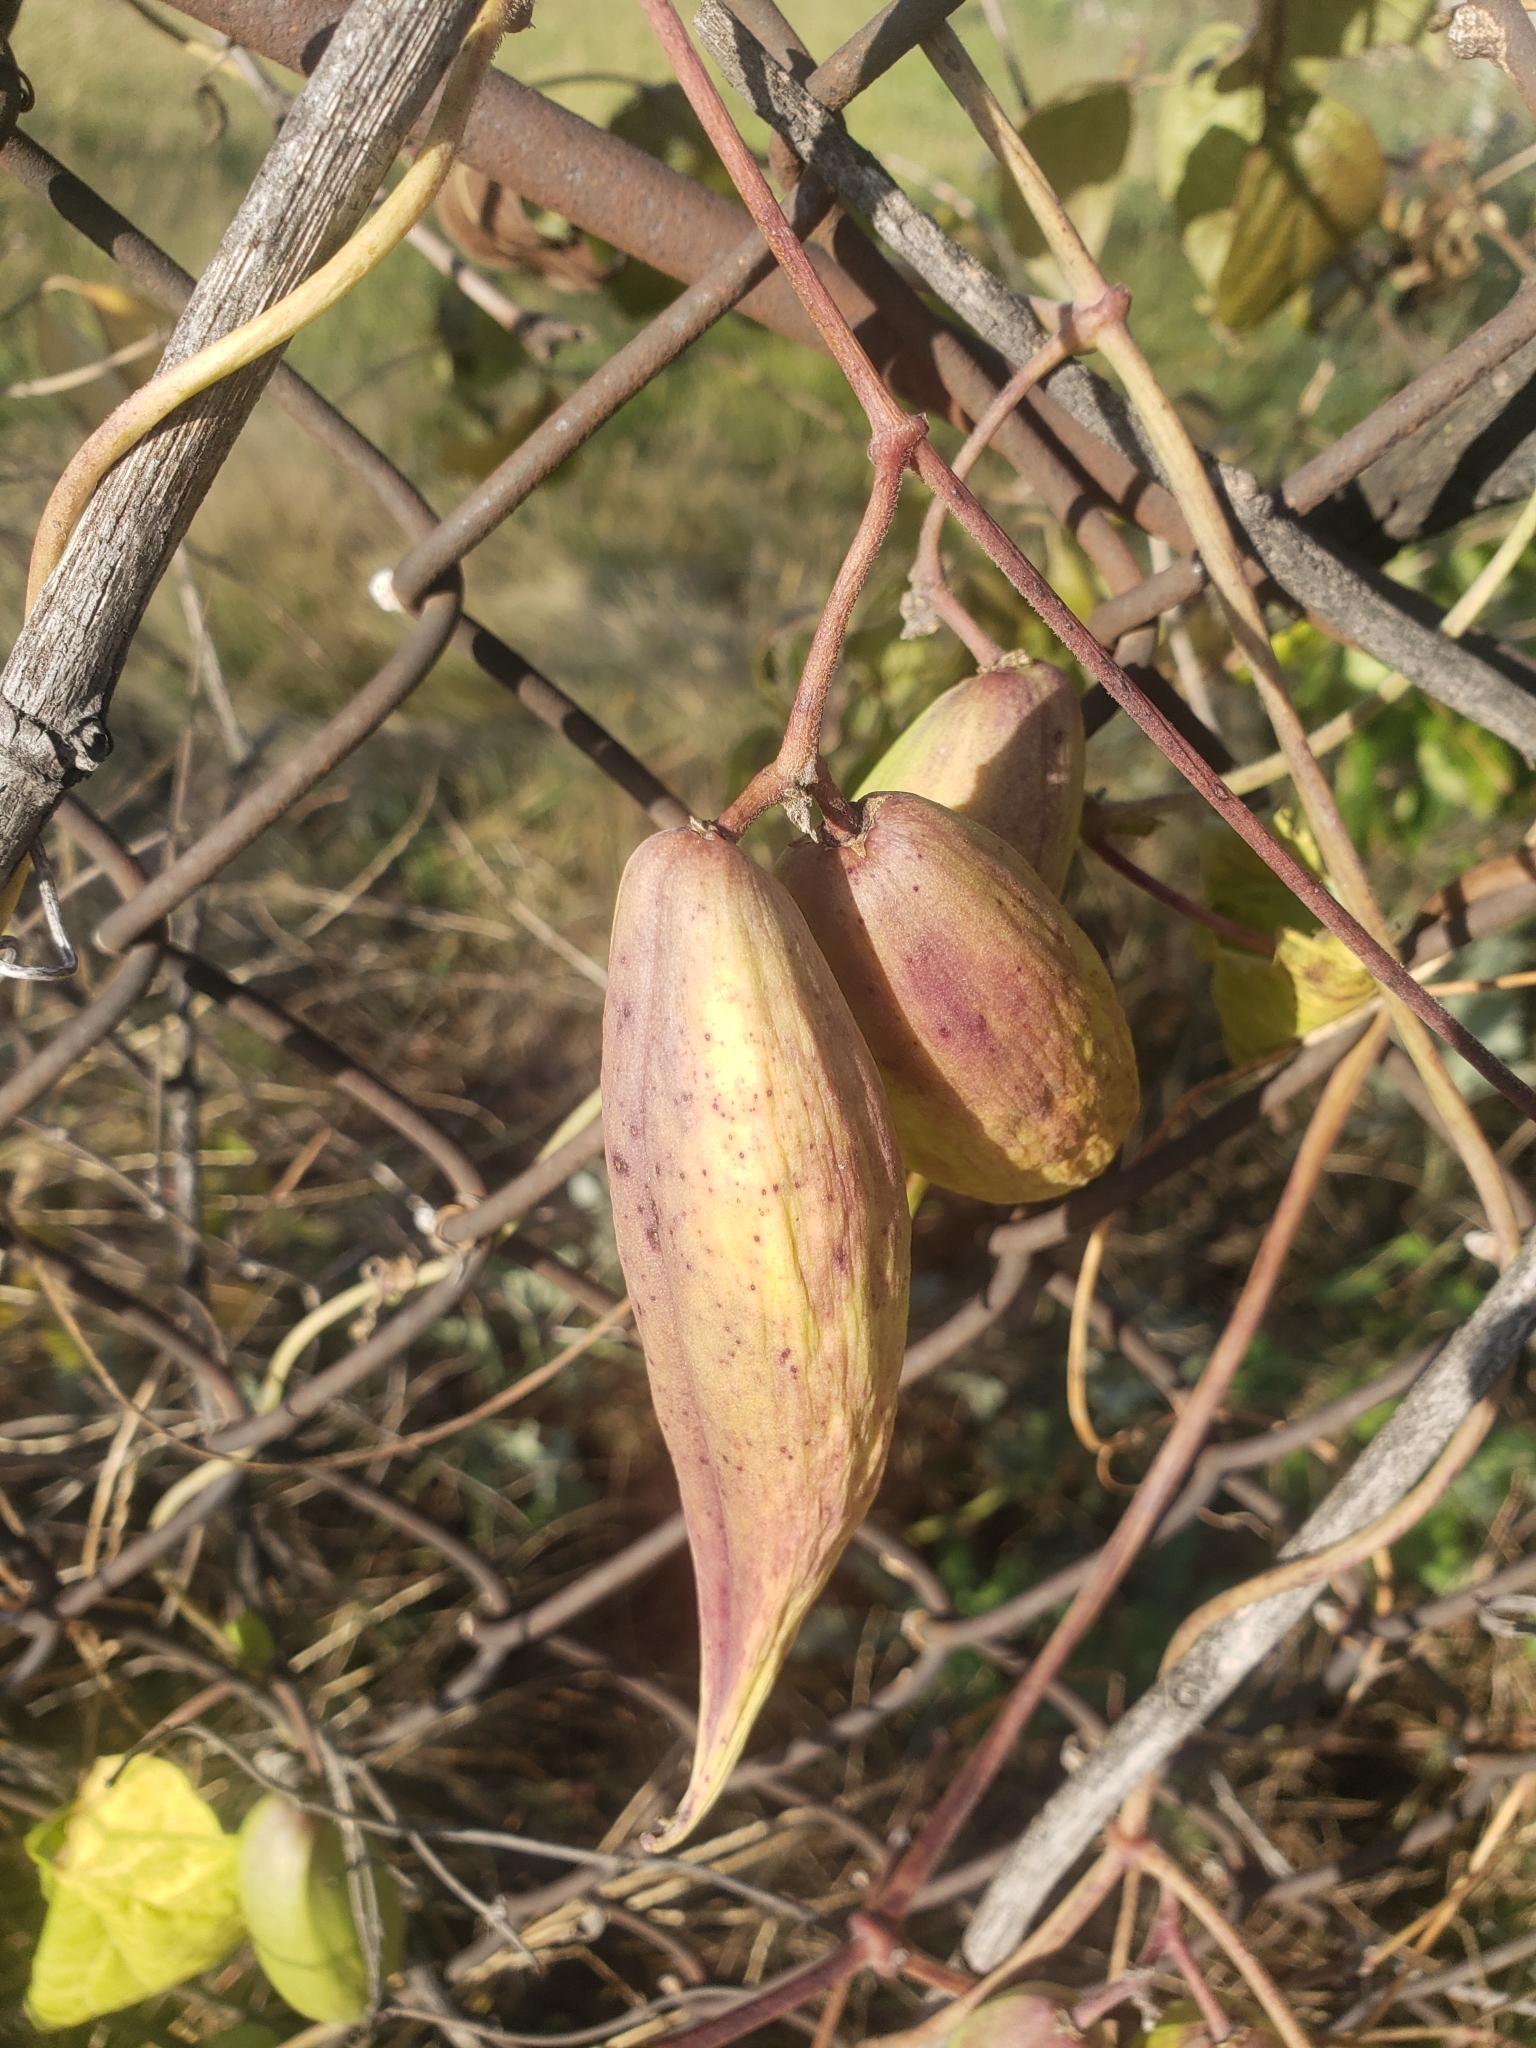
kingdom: Plantae
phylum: Tracheophyta
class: Magnoliopsida
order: Gentianales
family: Apocynaceae
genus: Cynanchum
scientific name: Cynanchum laeve
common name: Sandvine
